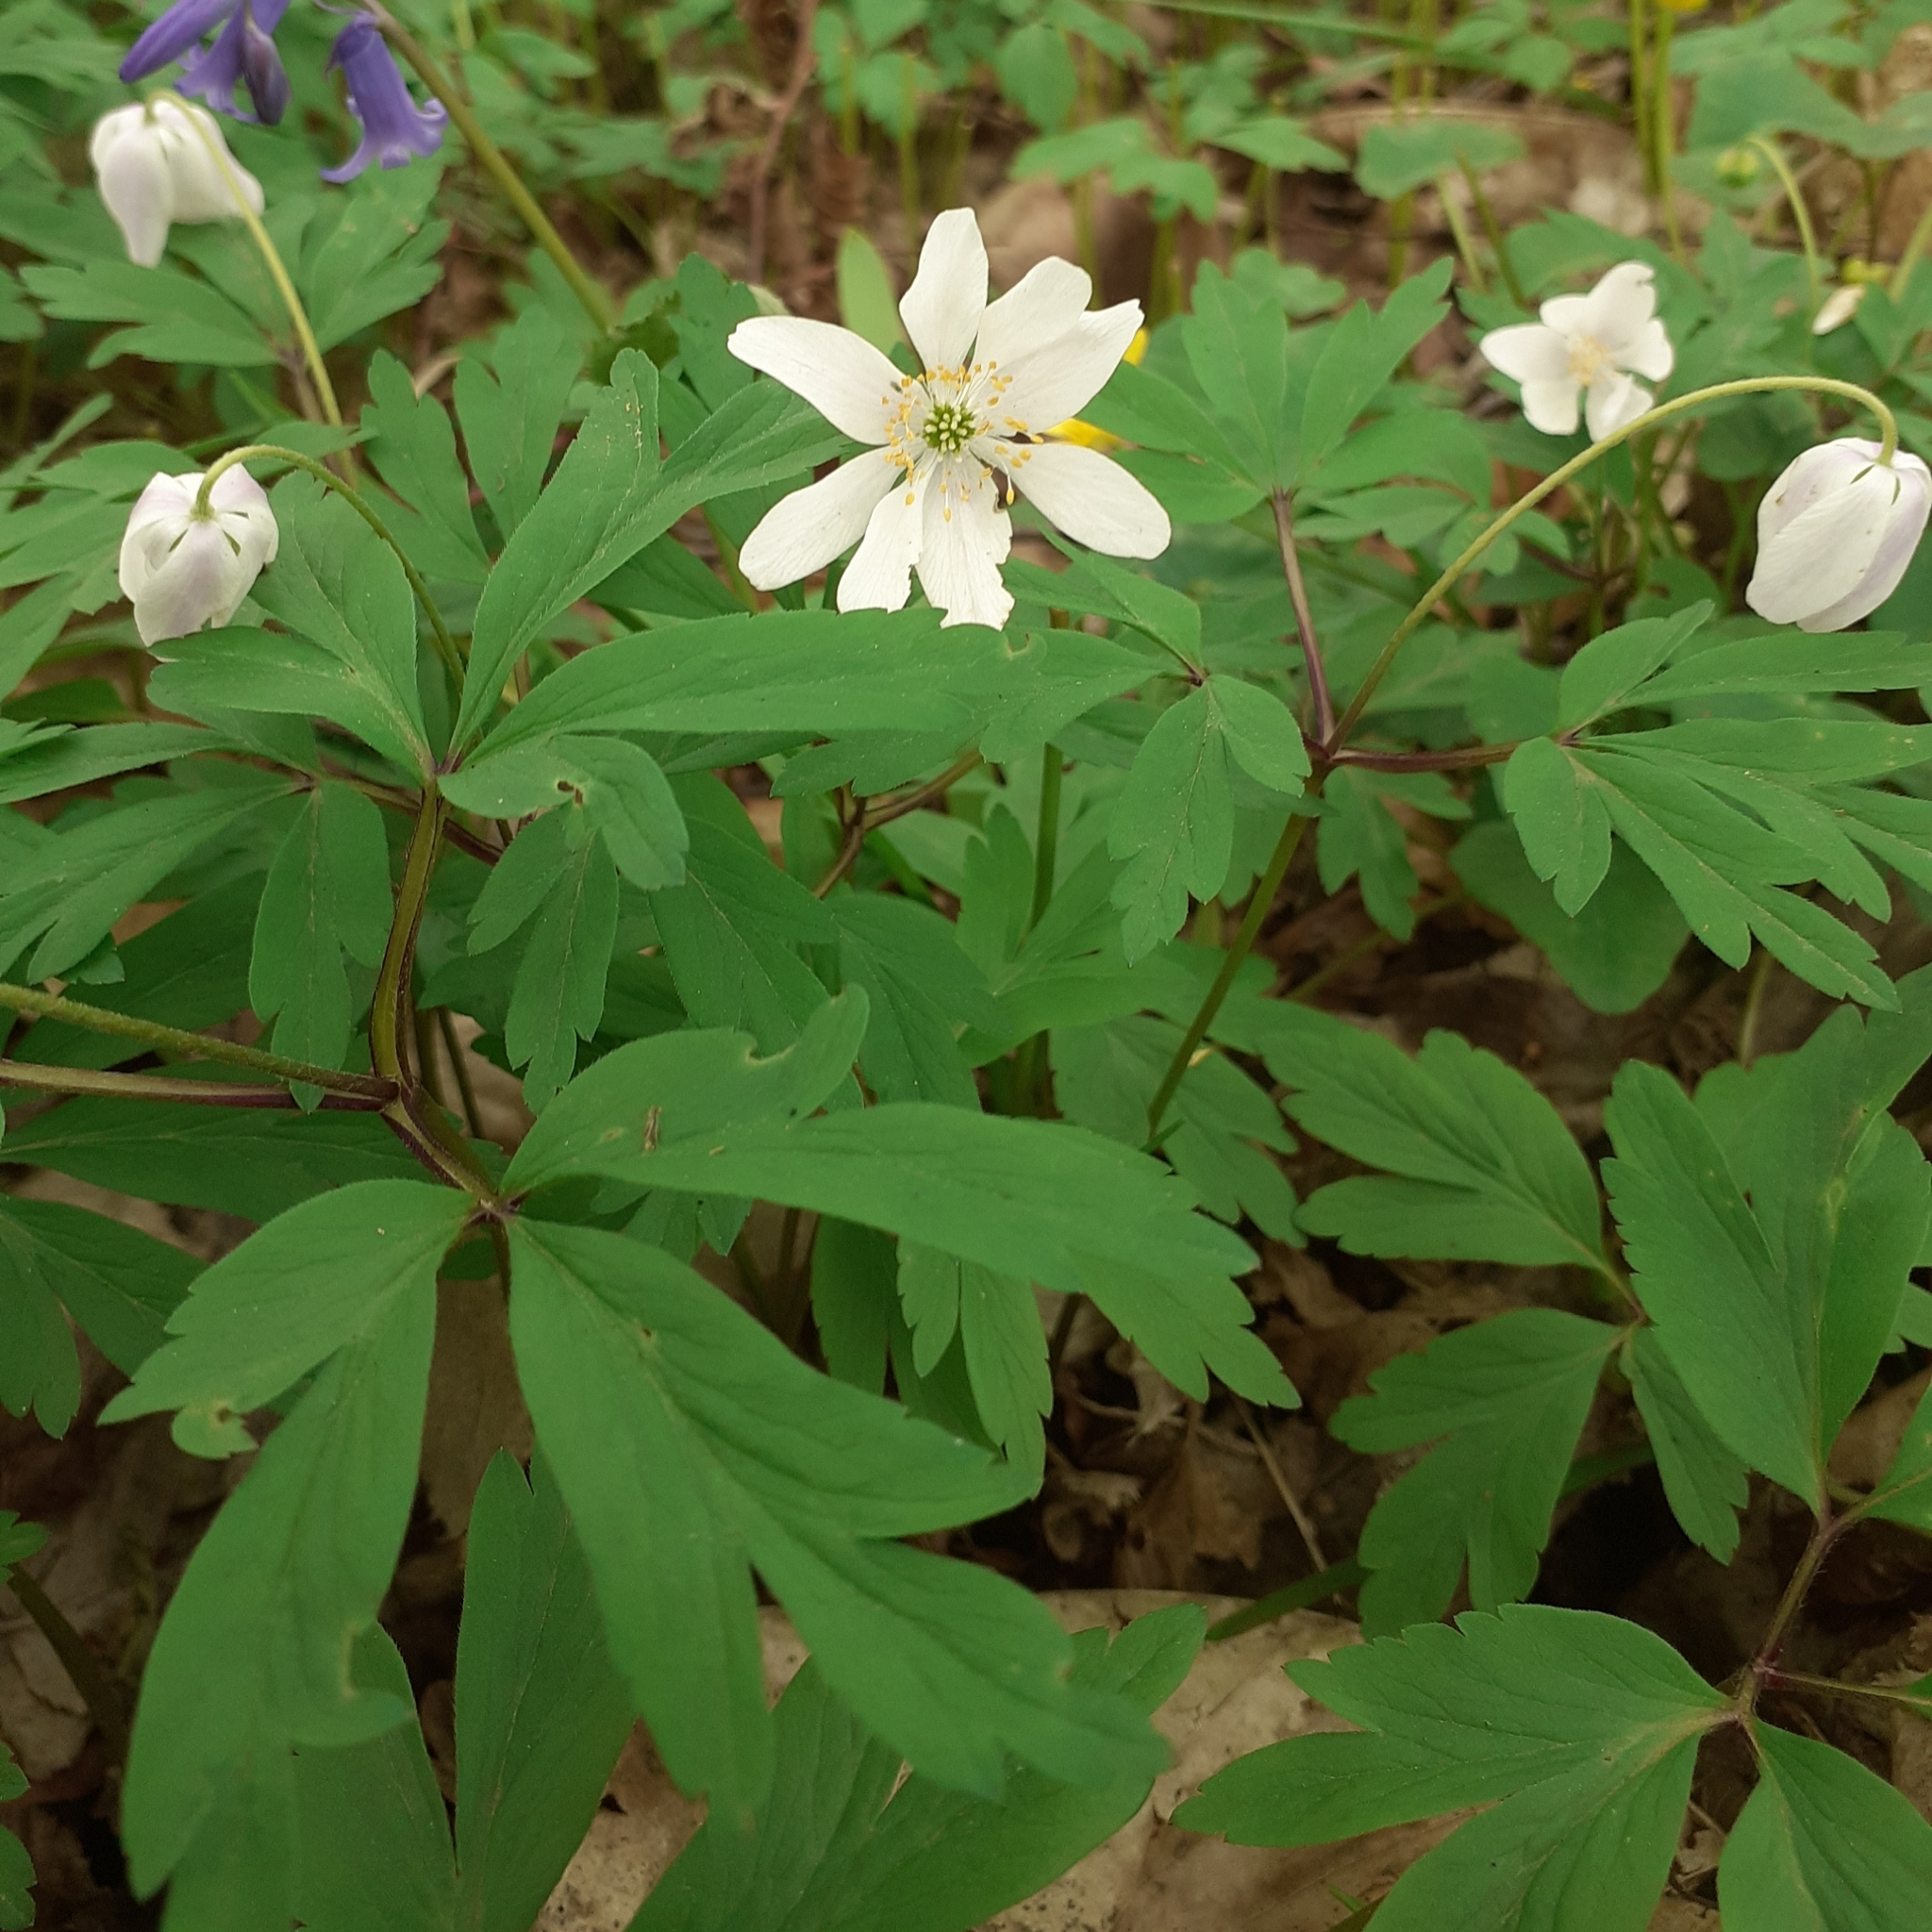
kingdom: Plantae
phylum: Tracheophyta
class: Magnoliopsida
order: Ranunculales
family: Ranunculaceae
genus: Anemone
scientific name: Anemone nemorosa
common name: Wood anemone
